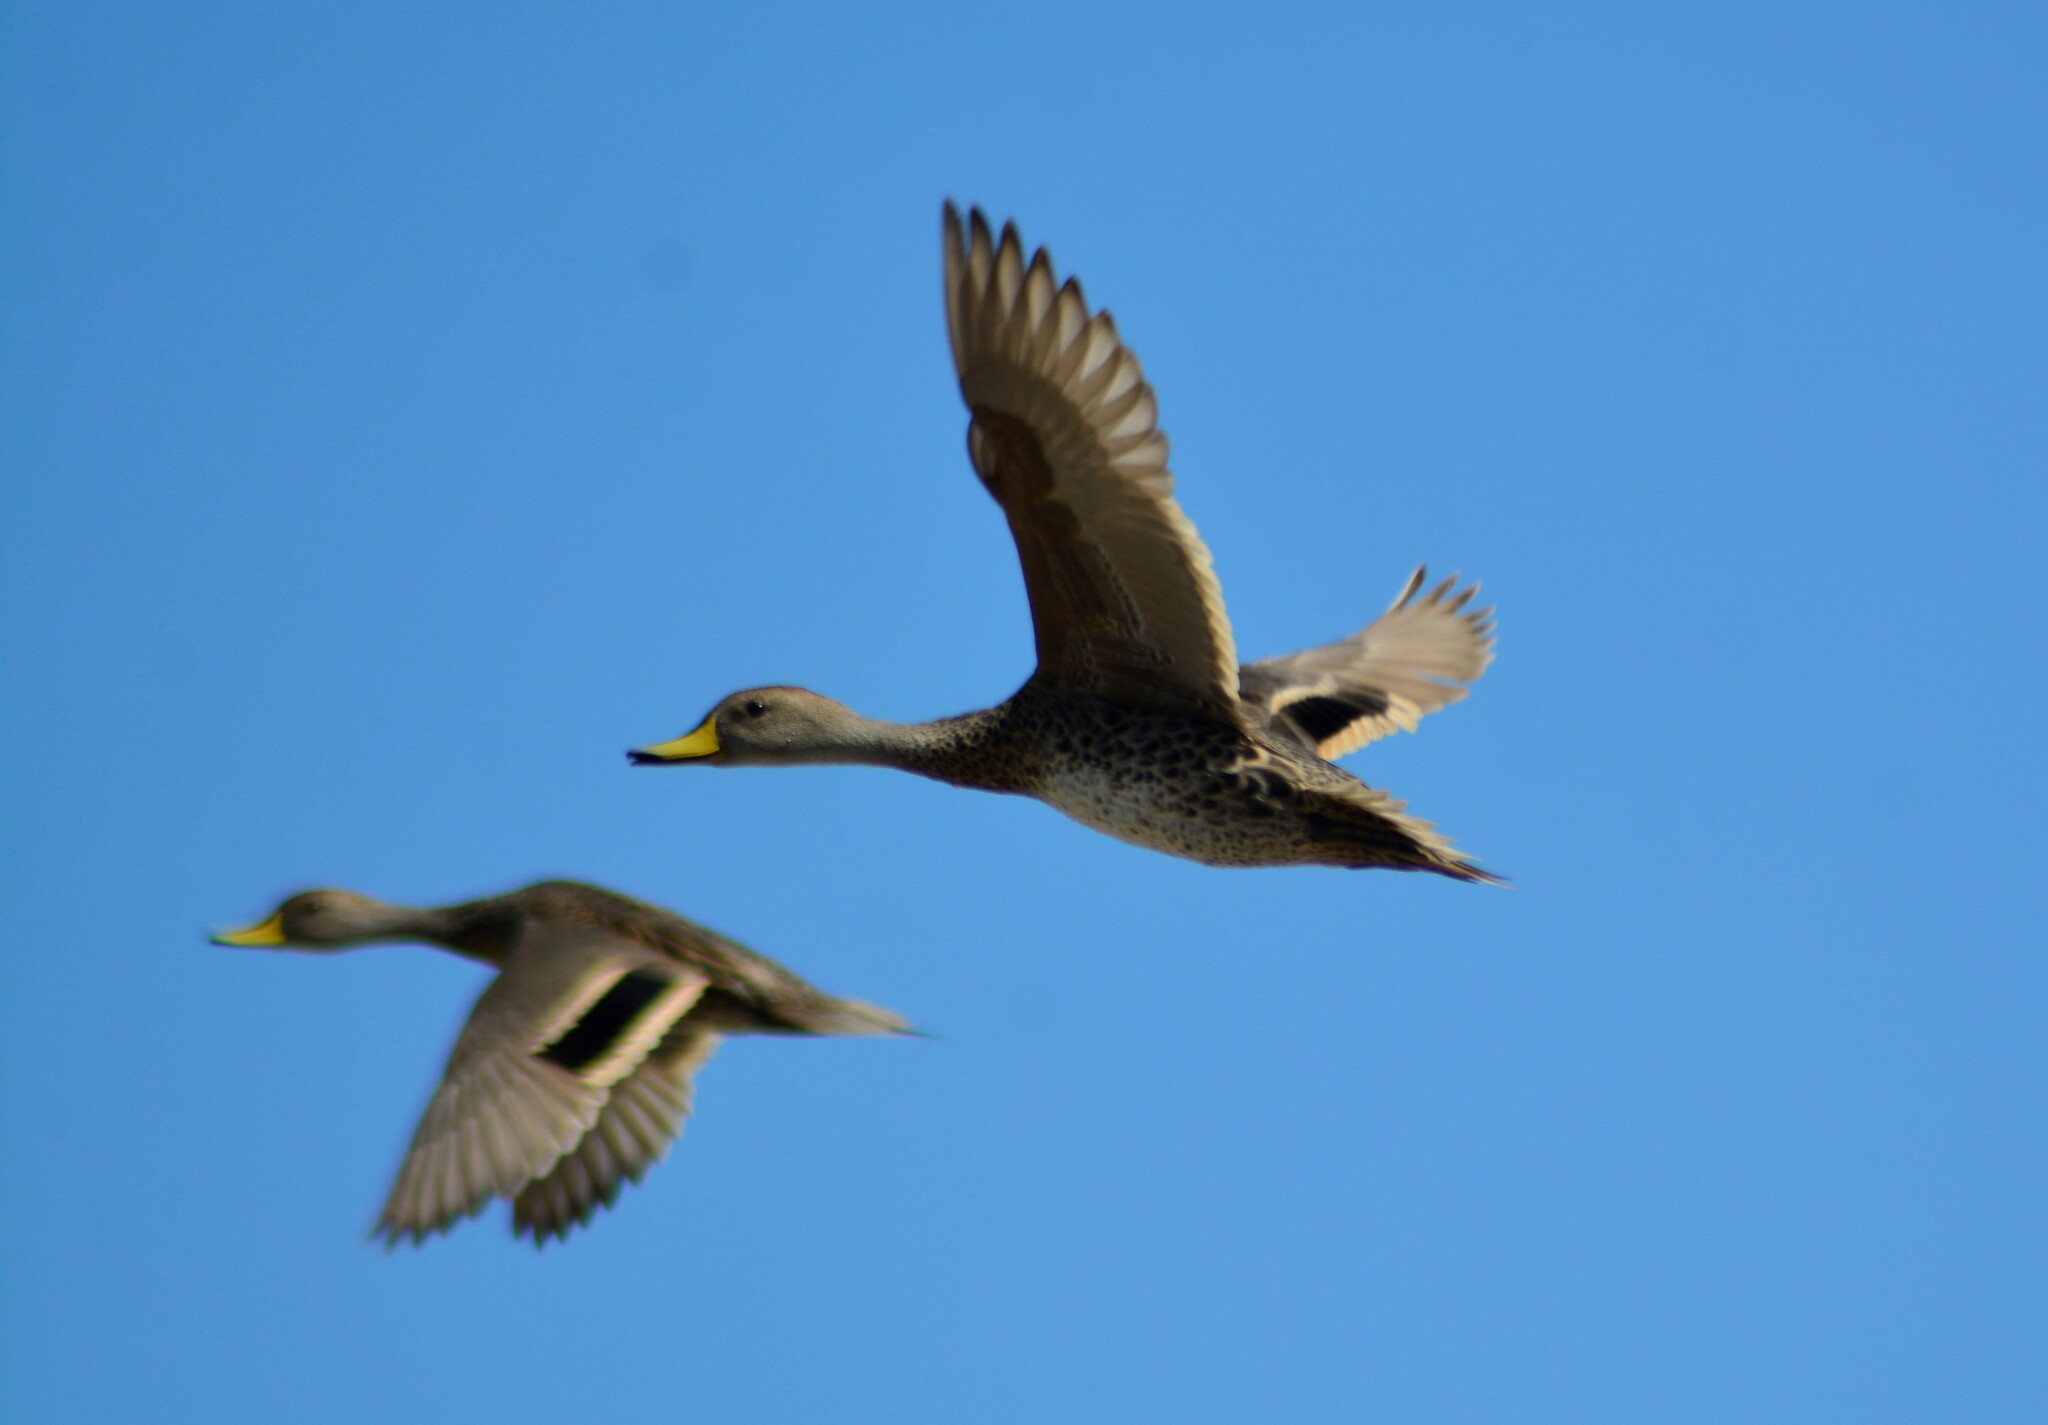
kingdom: Animalia
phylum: Chordata
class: Aves
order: Anseriformes
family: Anatidae
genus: Anas
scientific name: Anas georgica
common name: Yellow-billed pintail
